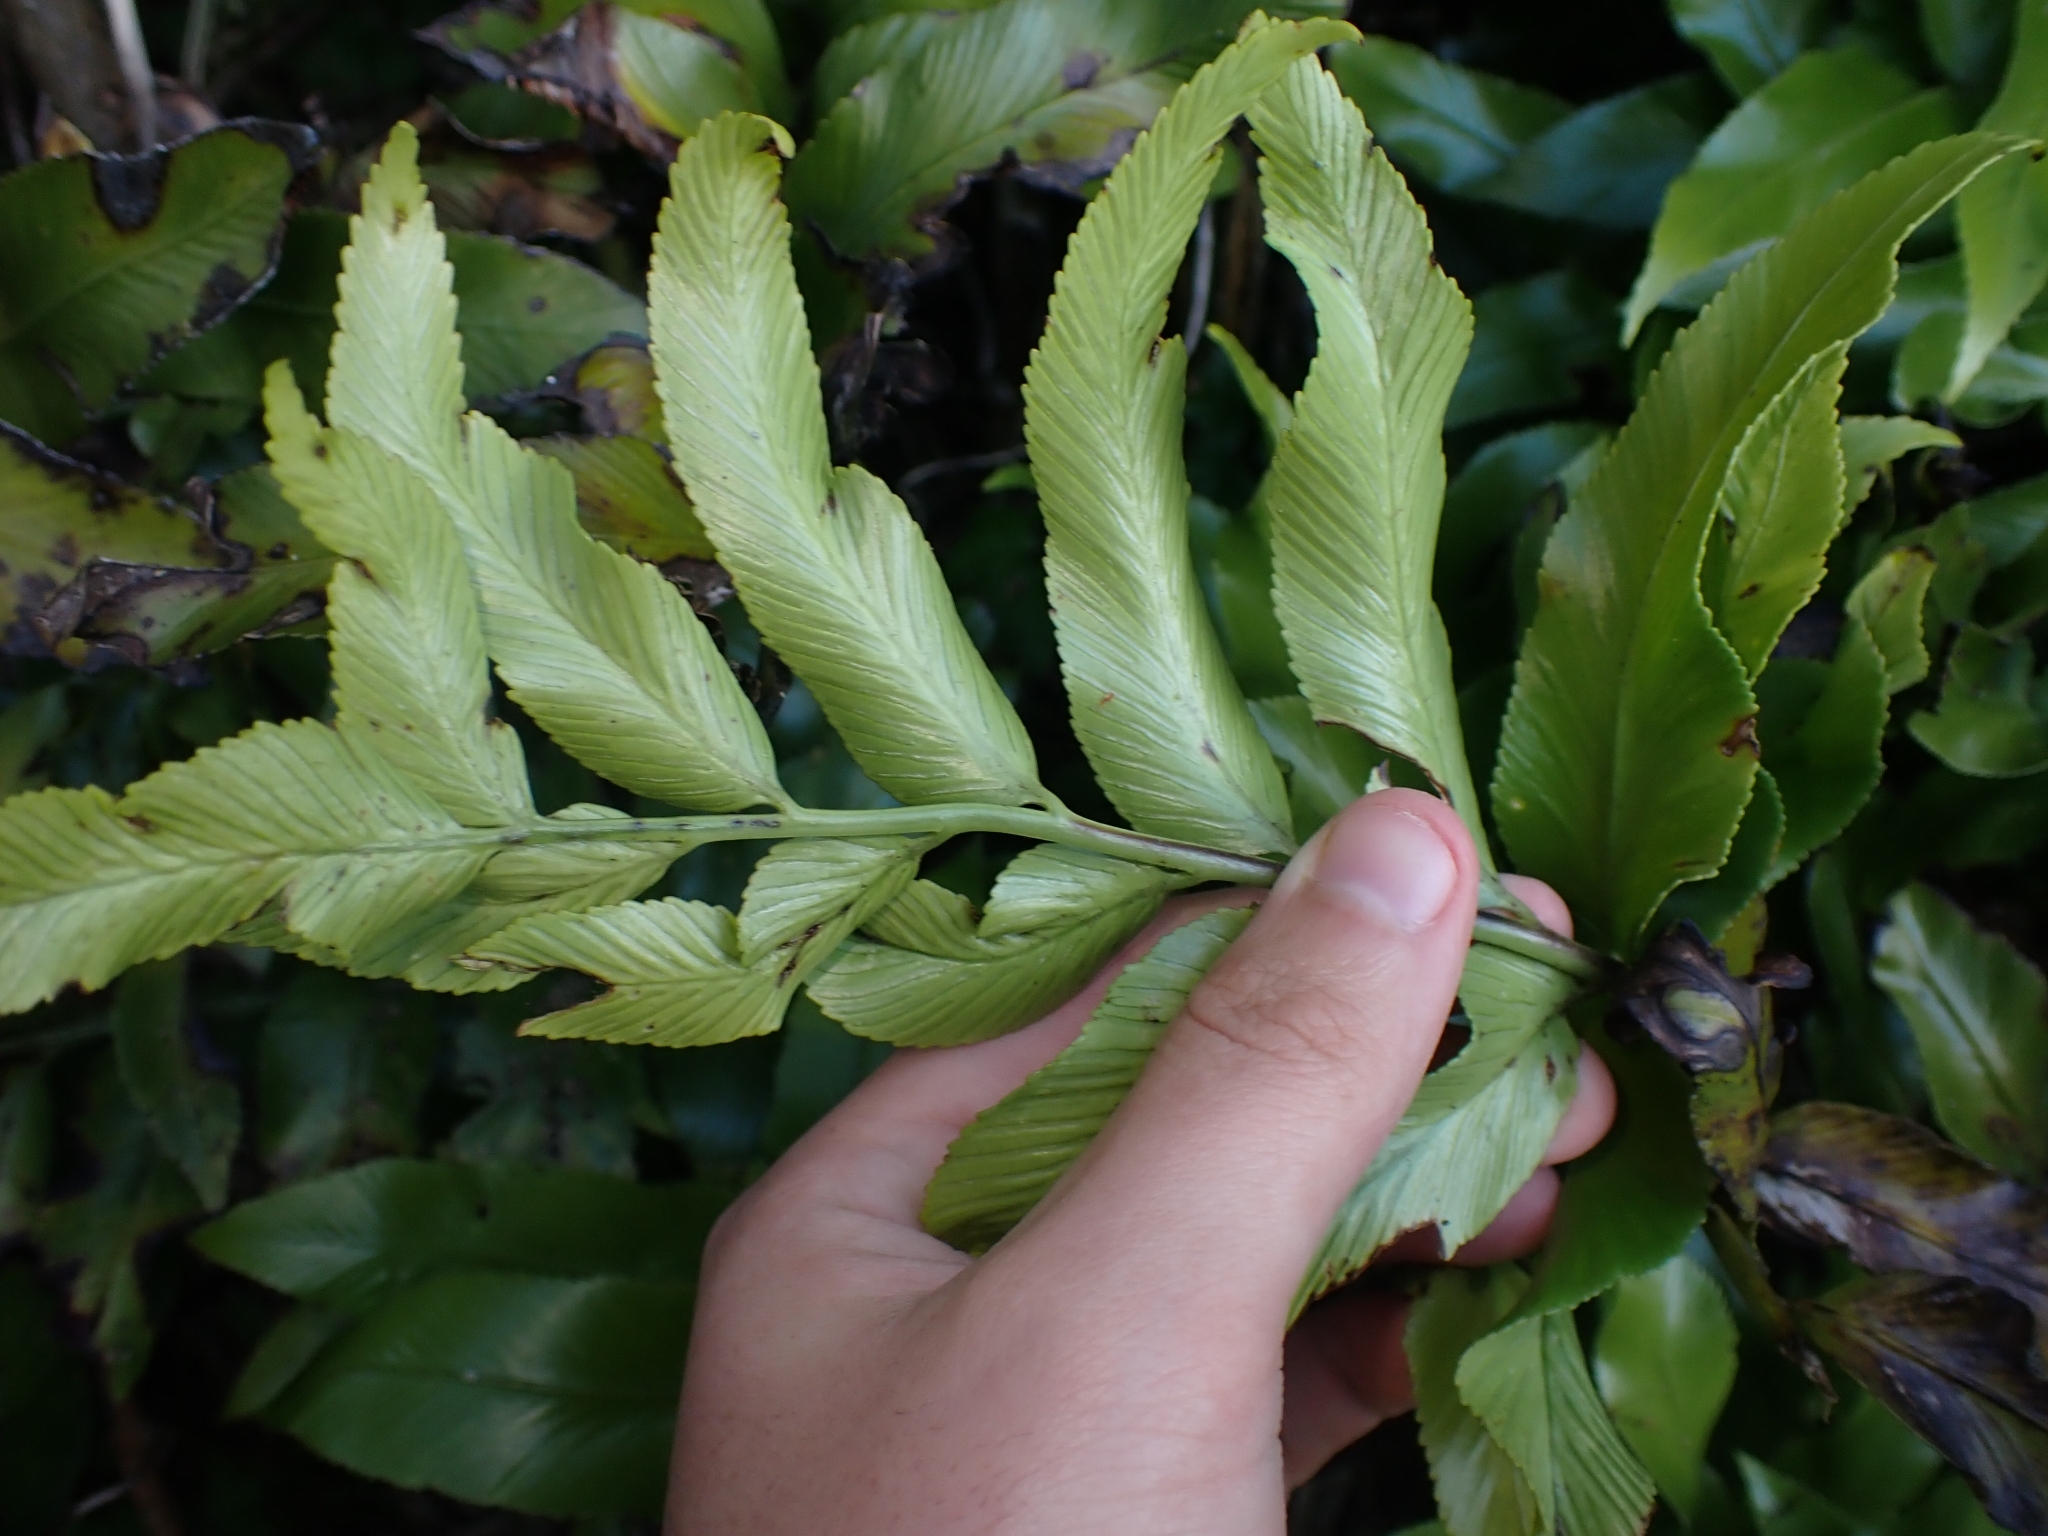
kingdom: Plantae
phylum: Tracheophyta
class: Polypodiopsida
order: Polypodiales
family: Aspleniaceae
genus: Asplenium
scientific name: Asplenium oblongifolium
